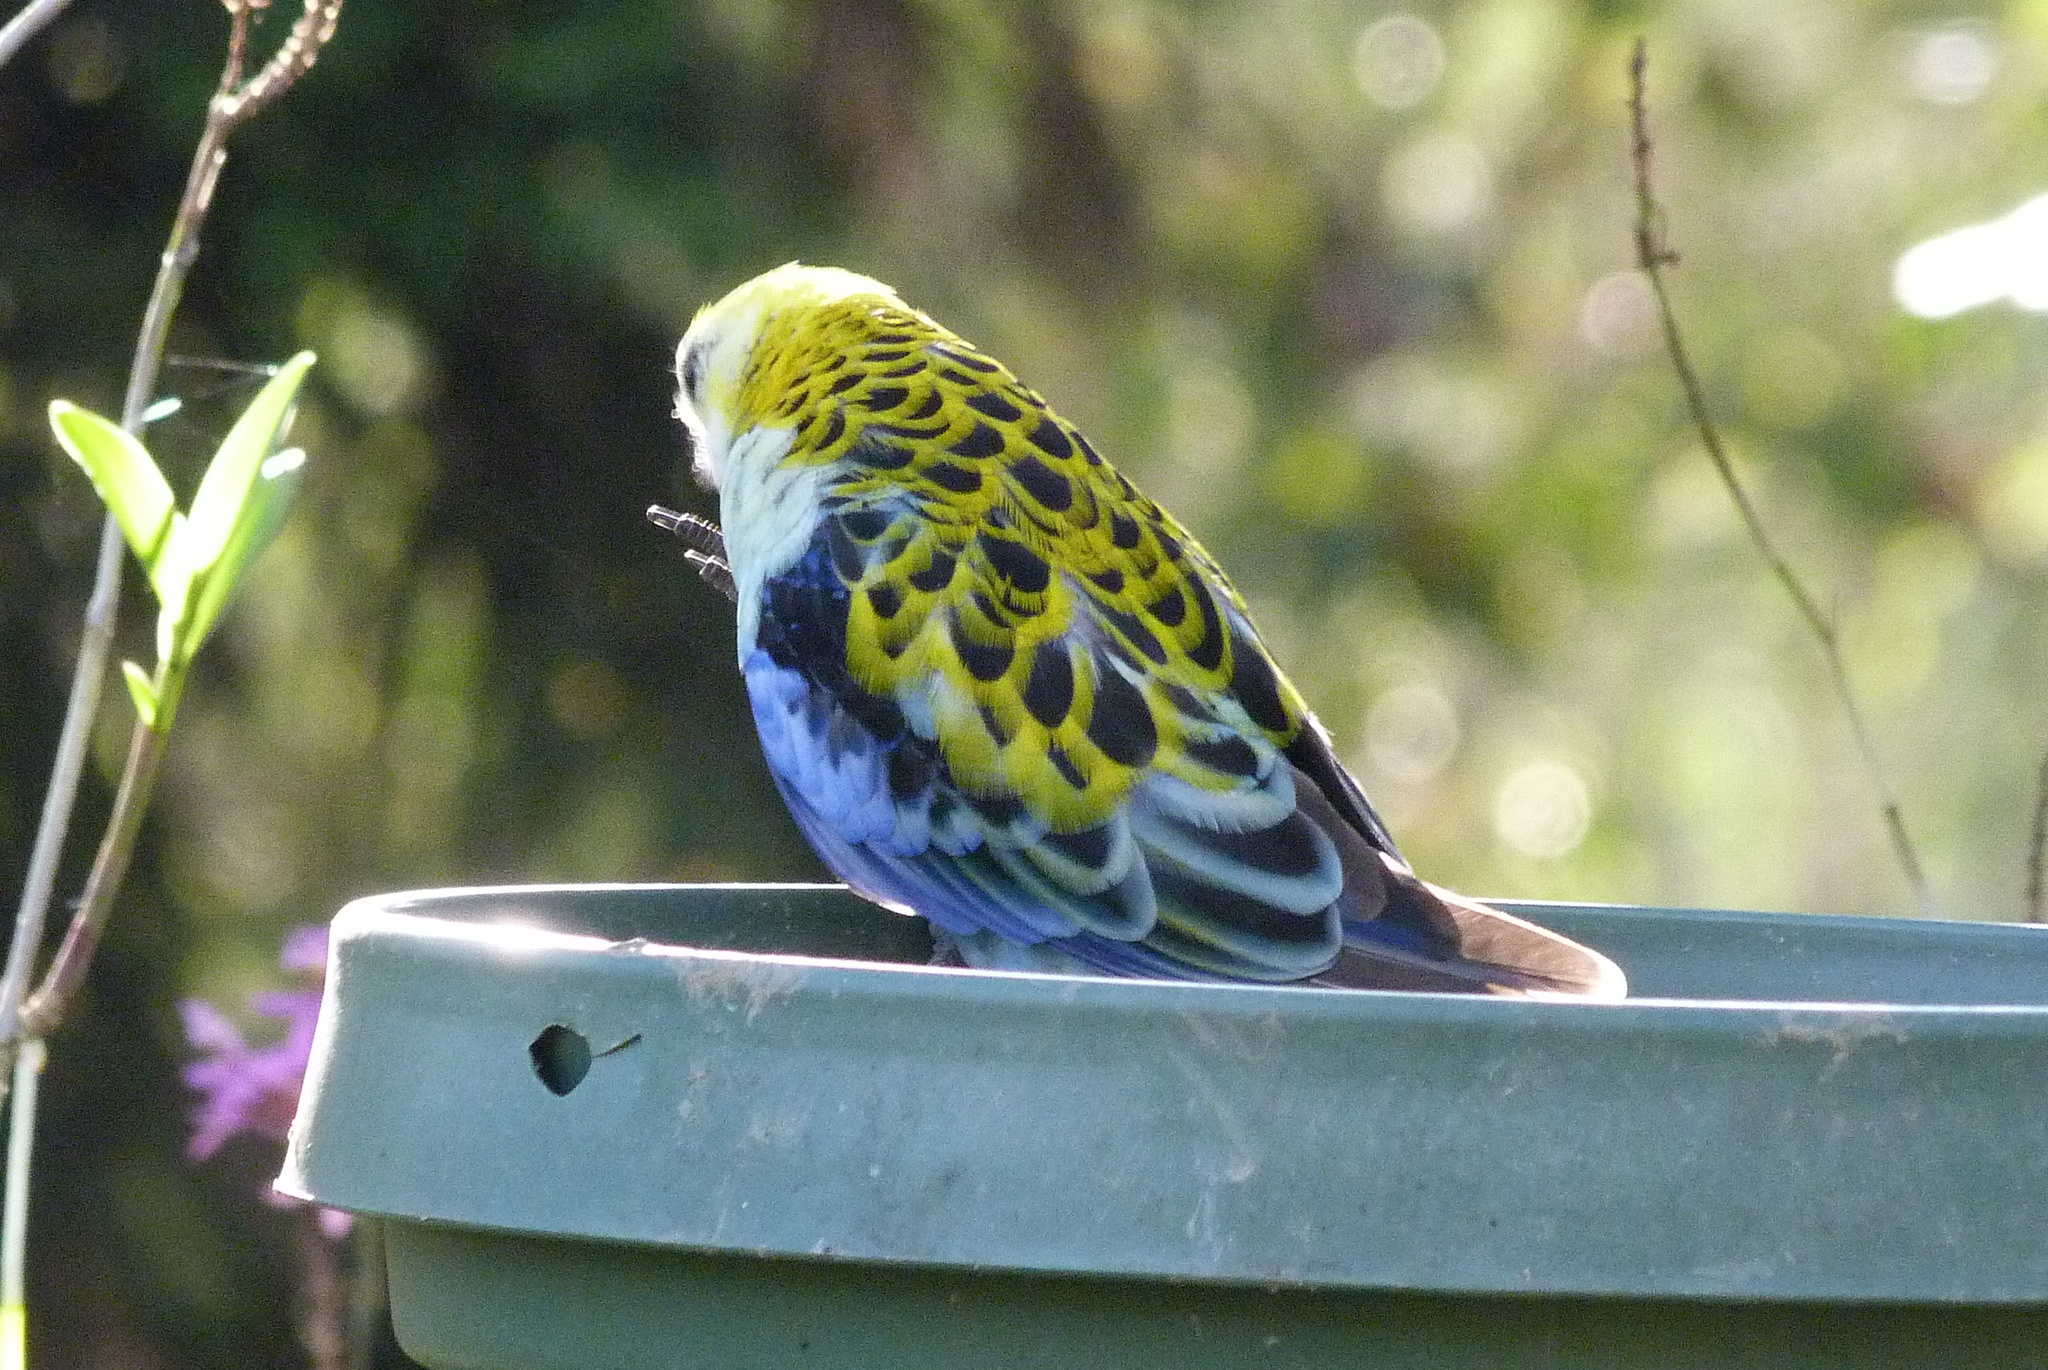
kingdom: Animalia
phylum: Chordata
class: Aves
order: Psittaciformes
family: Psittacidae
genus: Platycercus
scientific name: Platycercus adscitus
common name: Pale-headed rosella
